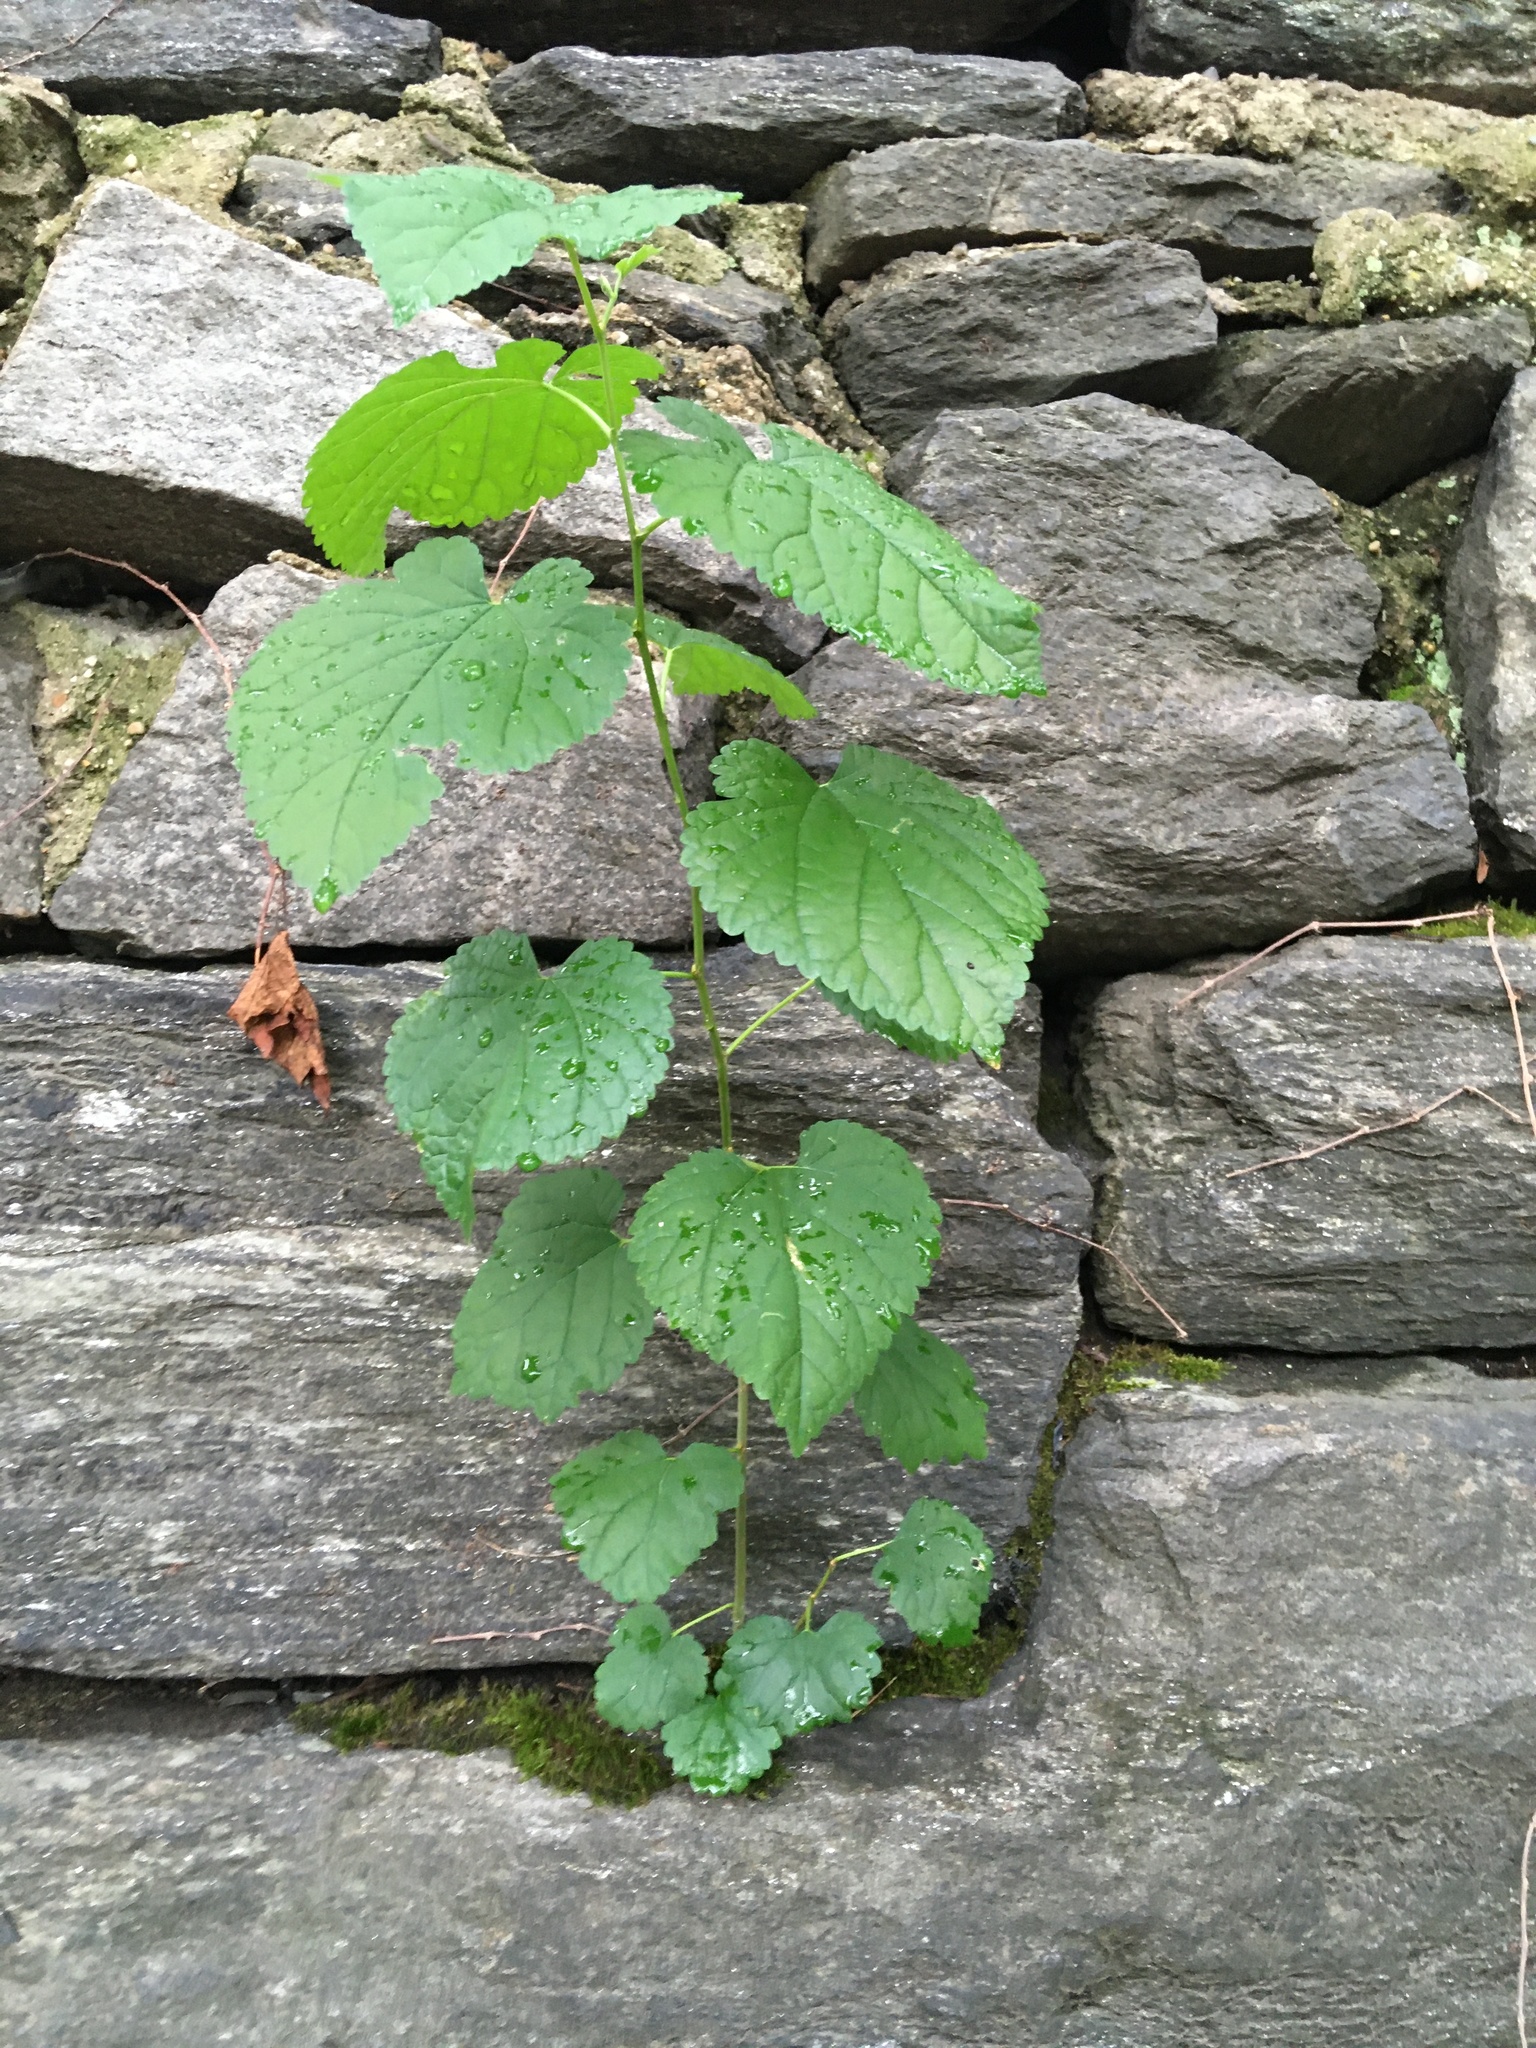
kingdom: Plantae
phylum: Tracheophyta
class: Magnoliopsida
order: Rosales
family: Moraceae
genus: Morus
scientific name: Morus alba
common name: White mulberry
